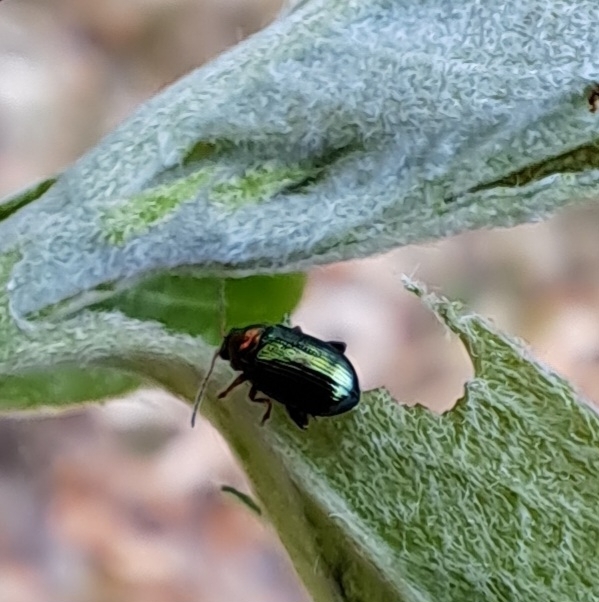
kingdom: Animalia
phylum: Arthropoda
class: Insecta
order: Coleoptera
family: Chrysomelidae
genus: Crepidodera
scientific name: Crepidodera aurata
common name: Willow flea beetle
